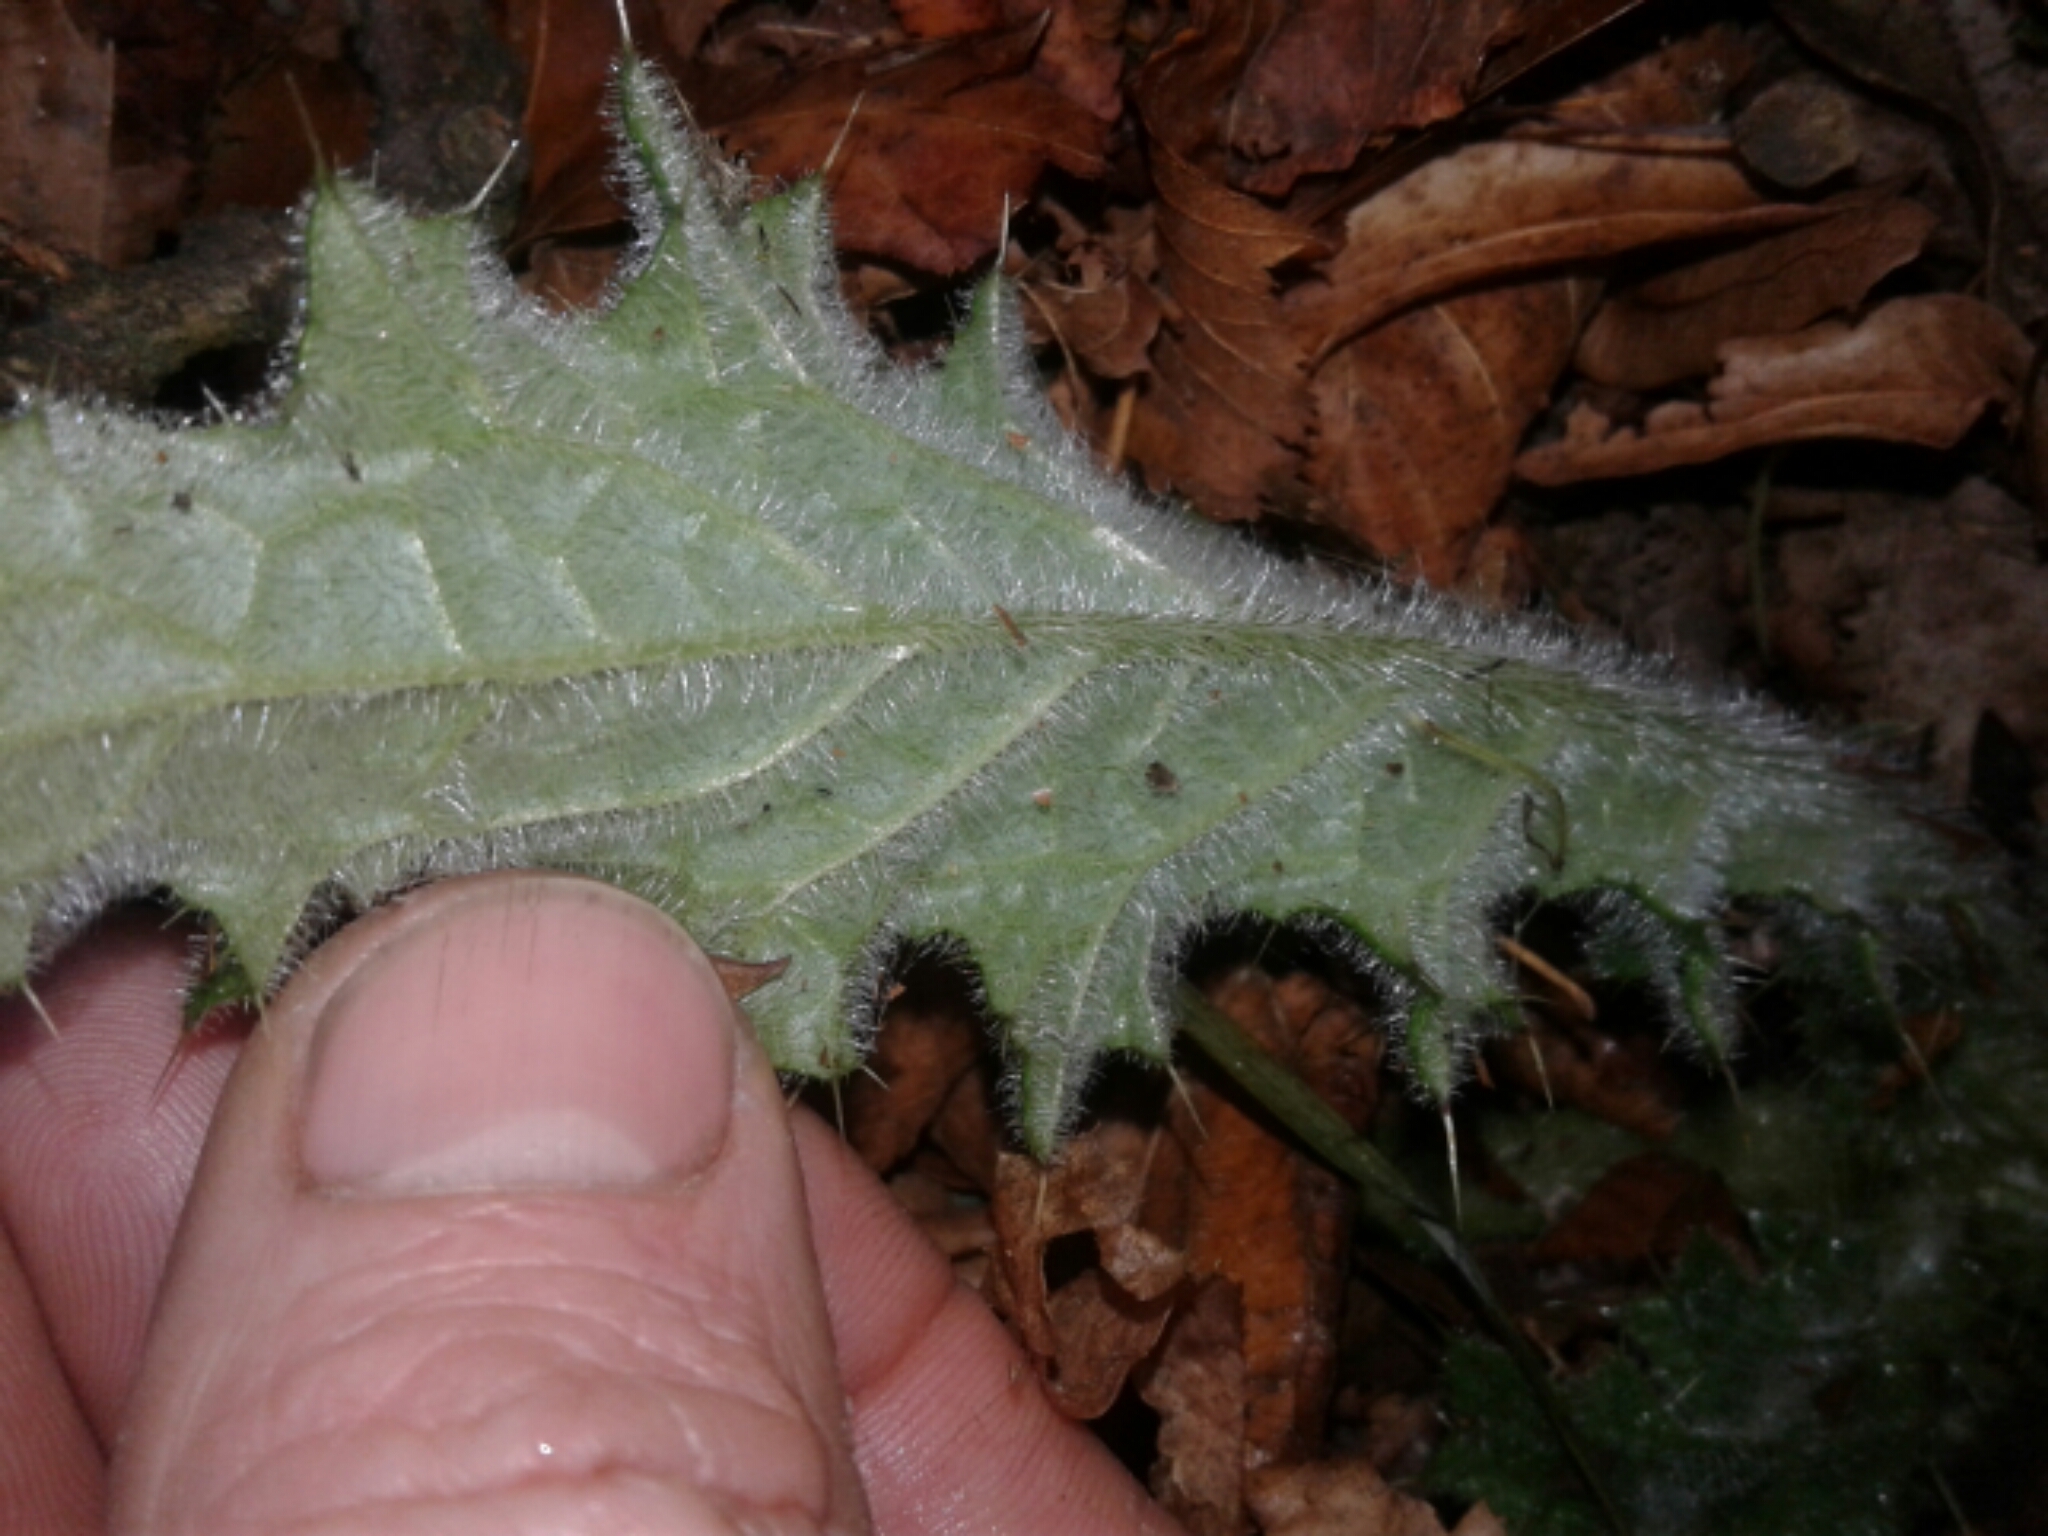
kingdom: Plantae
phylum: Tracheophyta
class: Magnoliopsida
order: Asterales
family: Asteraceae
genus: Cirsium
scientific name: Cirsium vulgare
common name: Bull thistle
